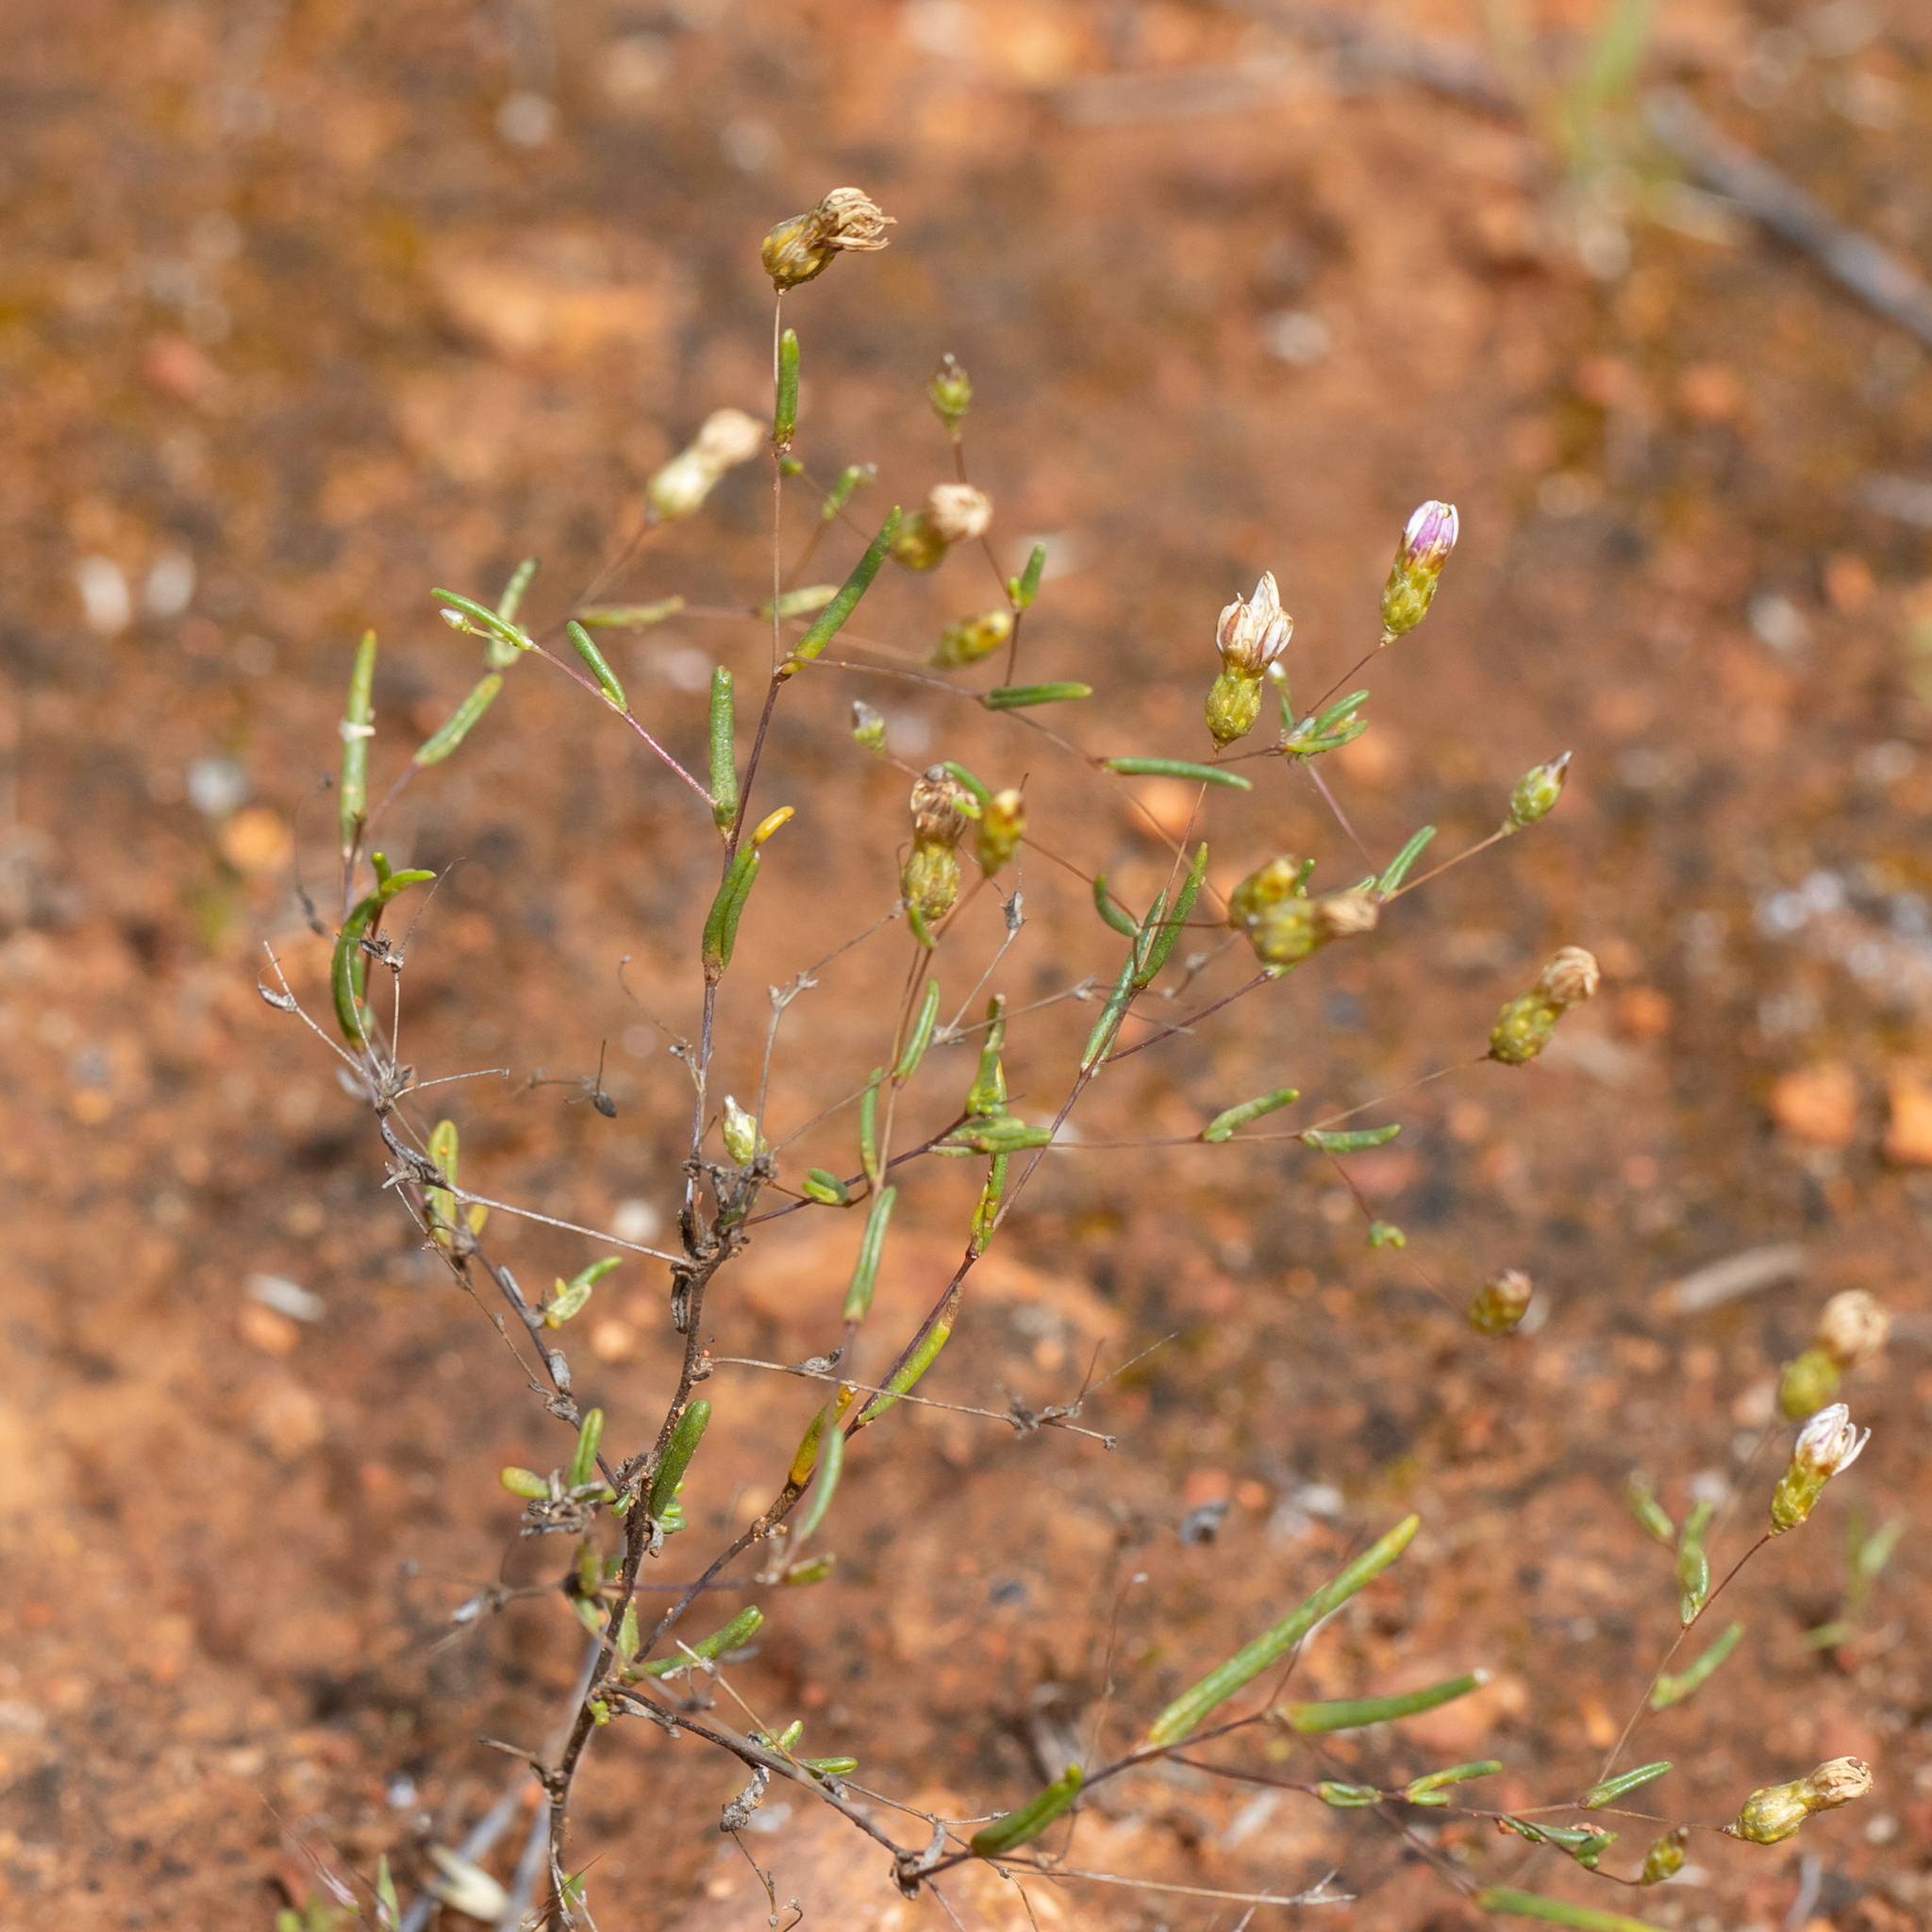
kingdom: Plantae
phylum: Tracheophyta
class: Magnoliopsida
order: Asterales
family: Asteraceae
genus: Siemssenia
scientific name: Siemssenia capillaris
